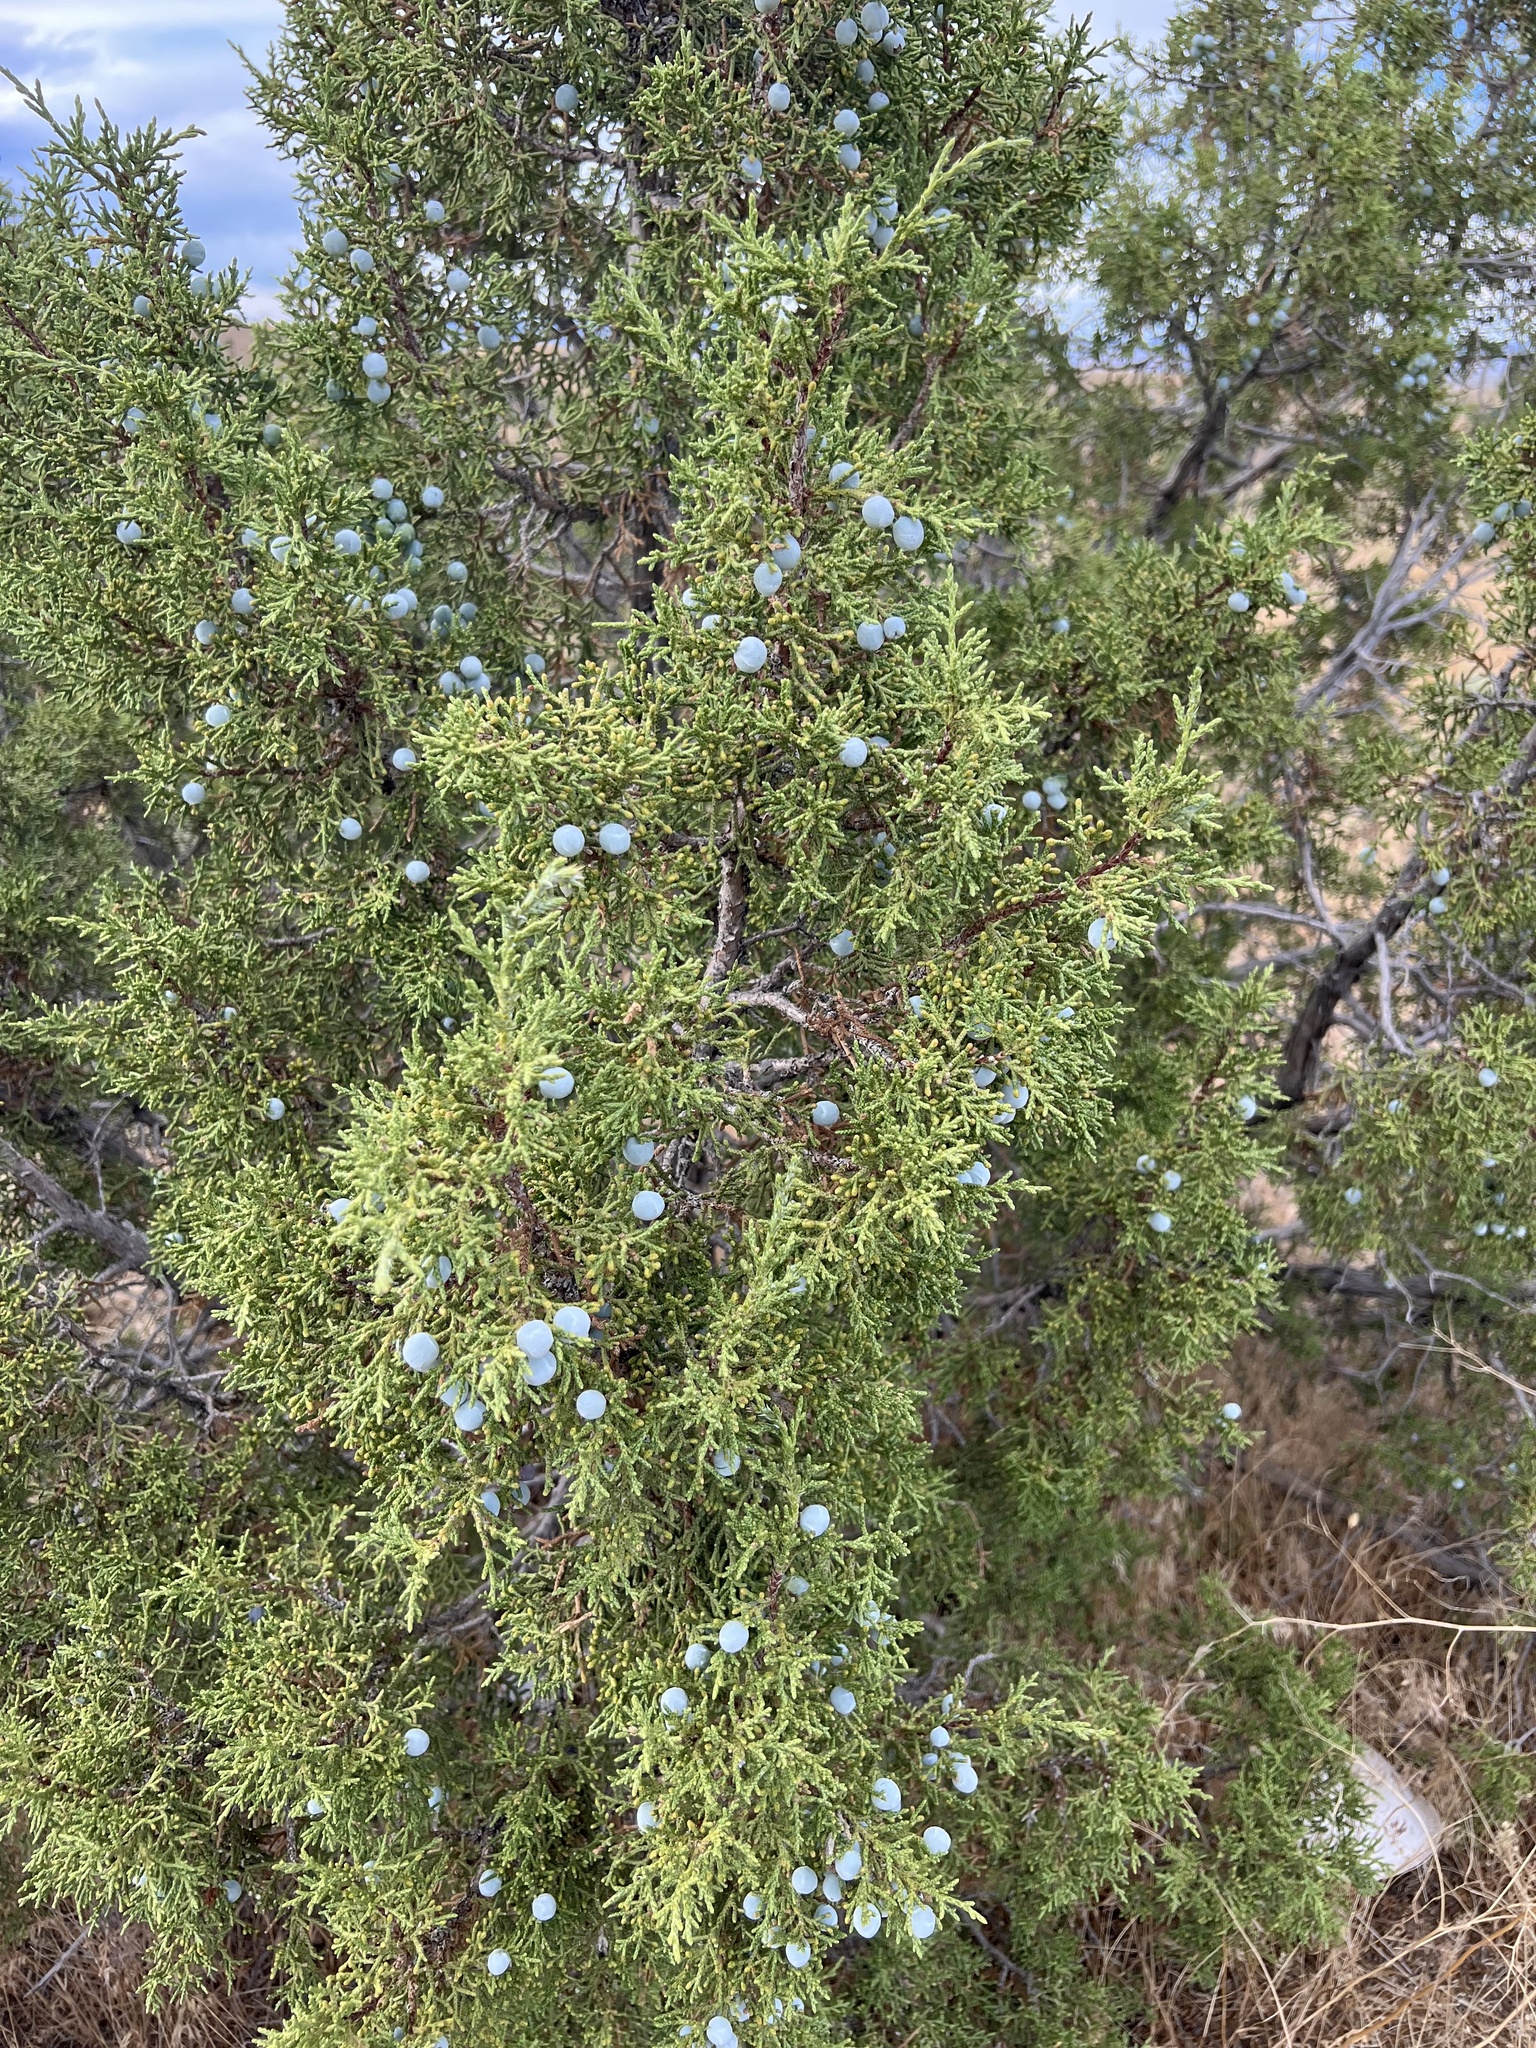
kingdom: Plantae
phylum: Tracheophyta
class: Pinopsida
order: Pinales
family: Cupressaceae
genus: Juniperus
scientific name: Juniperus osteosperma
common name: Utah juniper
